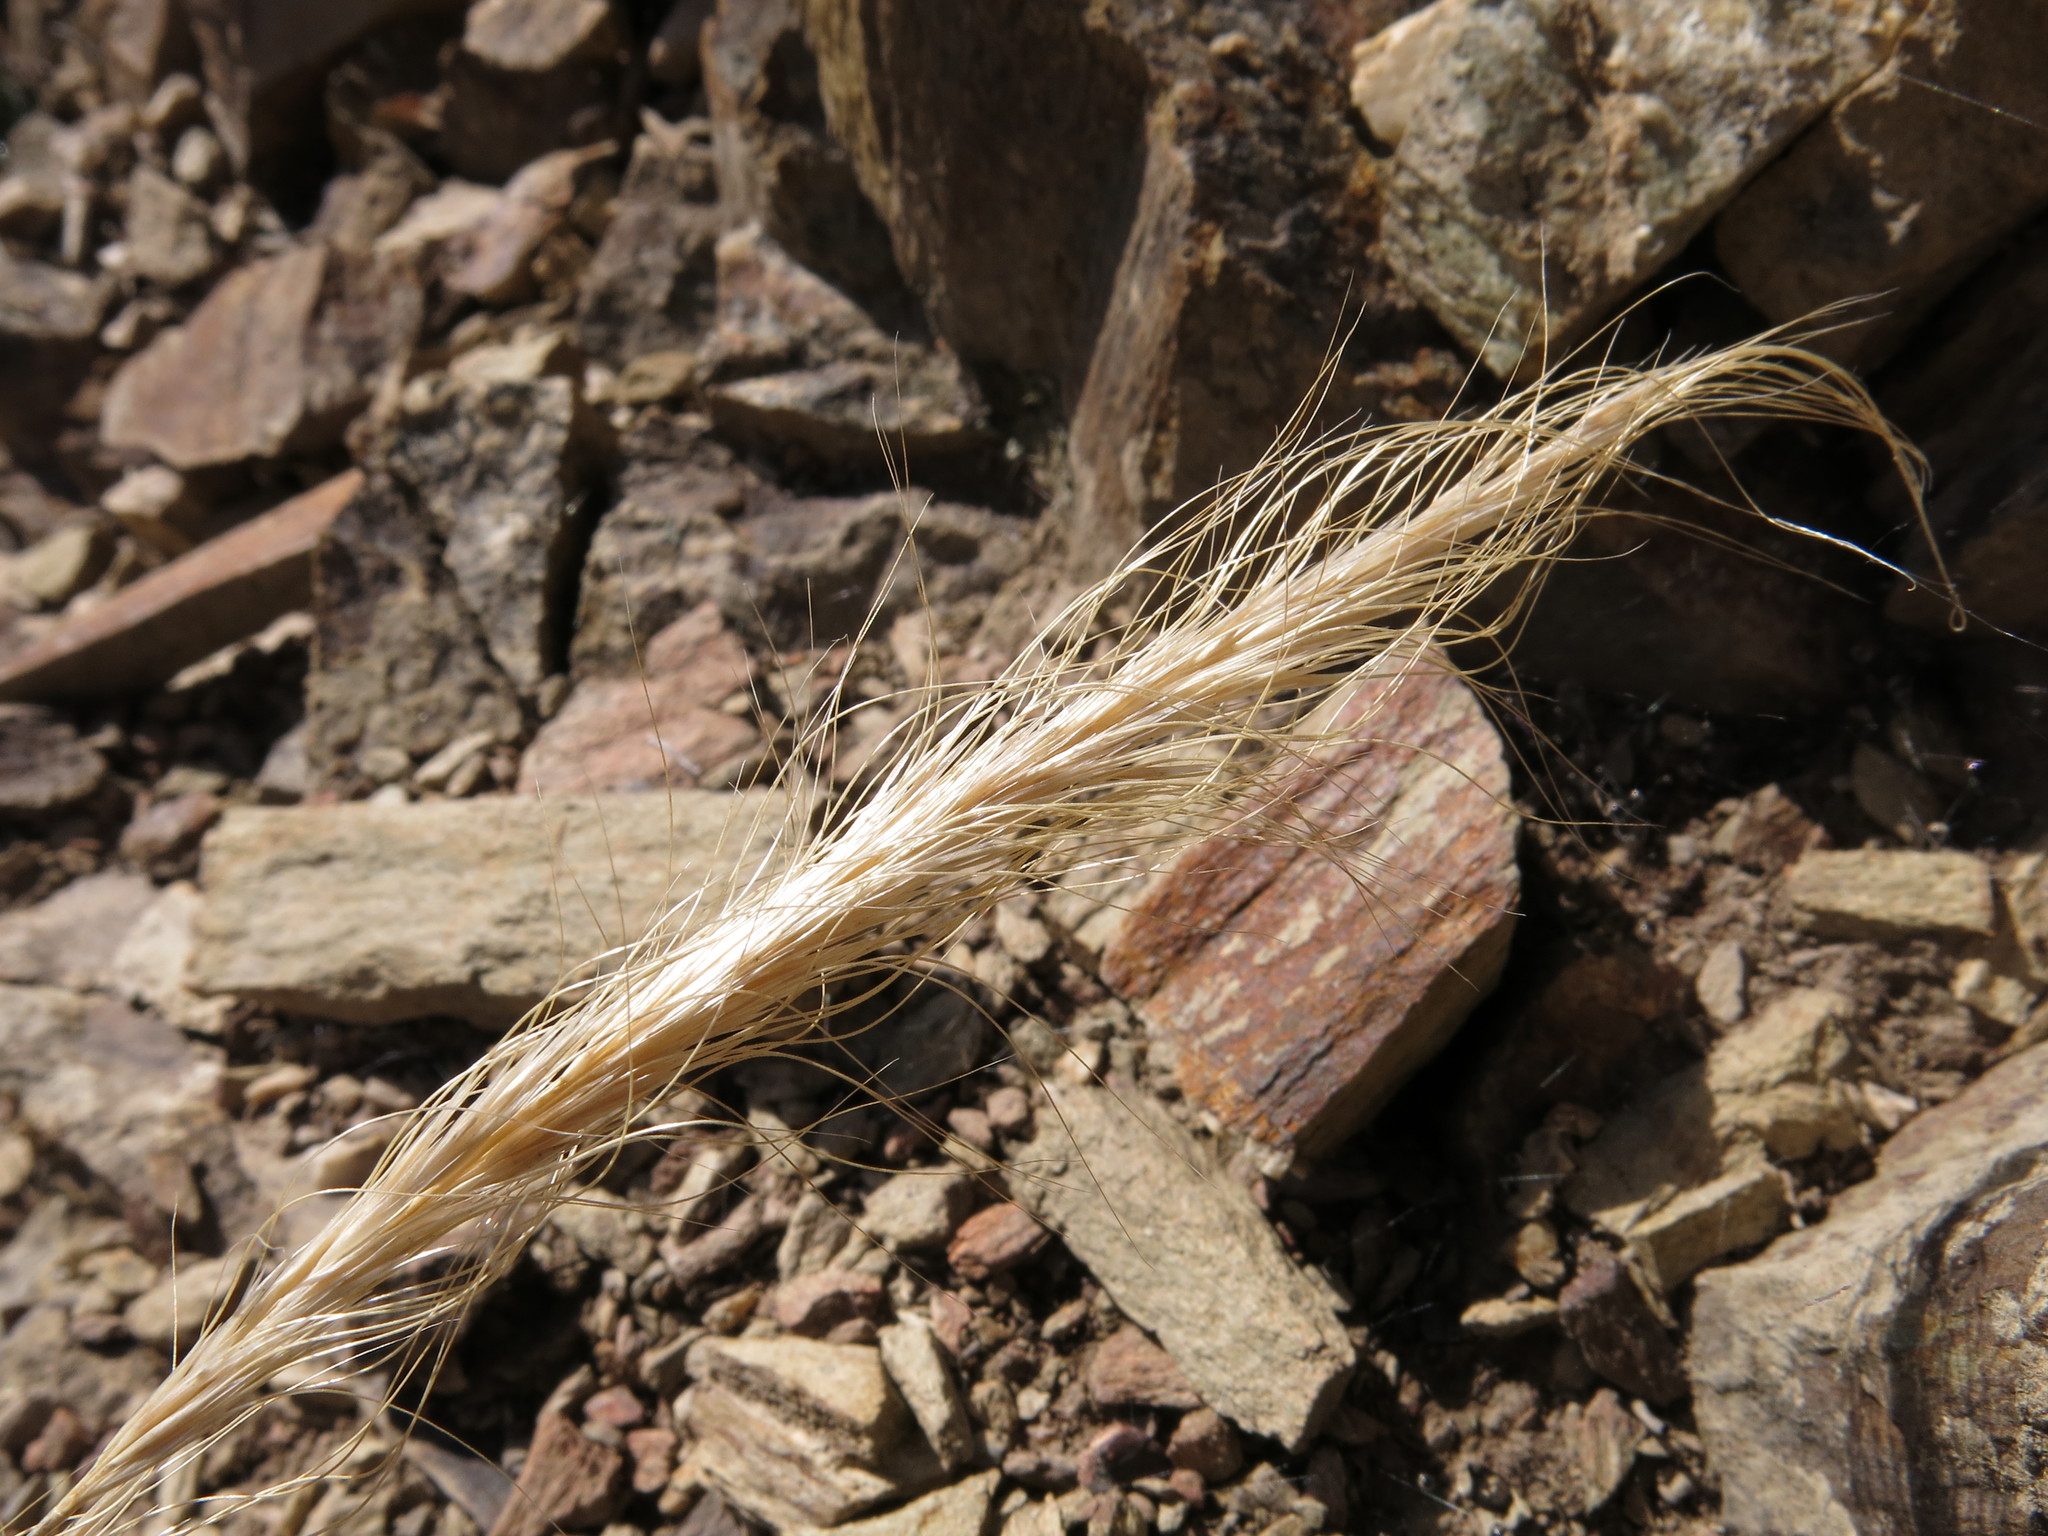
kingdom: Plantae
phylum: Tracheophyta
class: Liliopsida
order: Poales
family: Poaceae
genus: Dichelachne
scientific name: Dichelachne crinita
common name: Clovenfoot plumegrass
